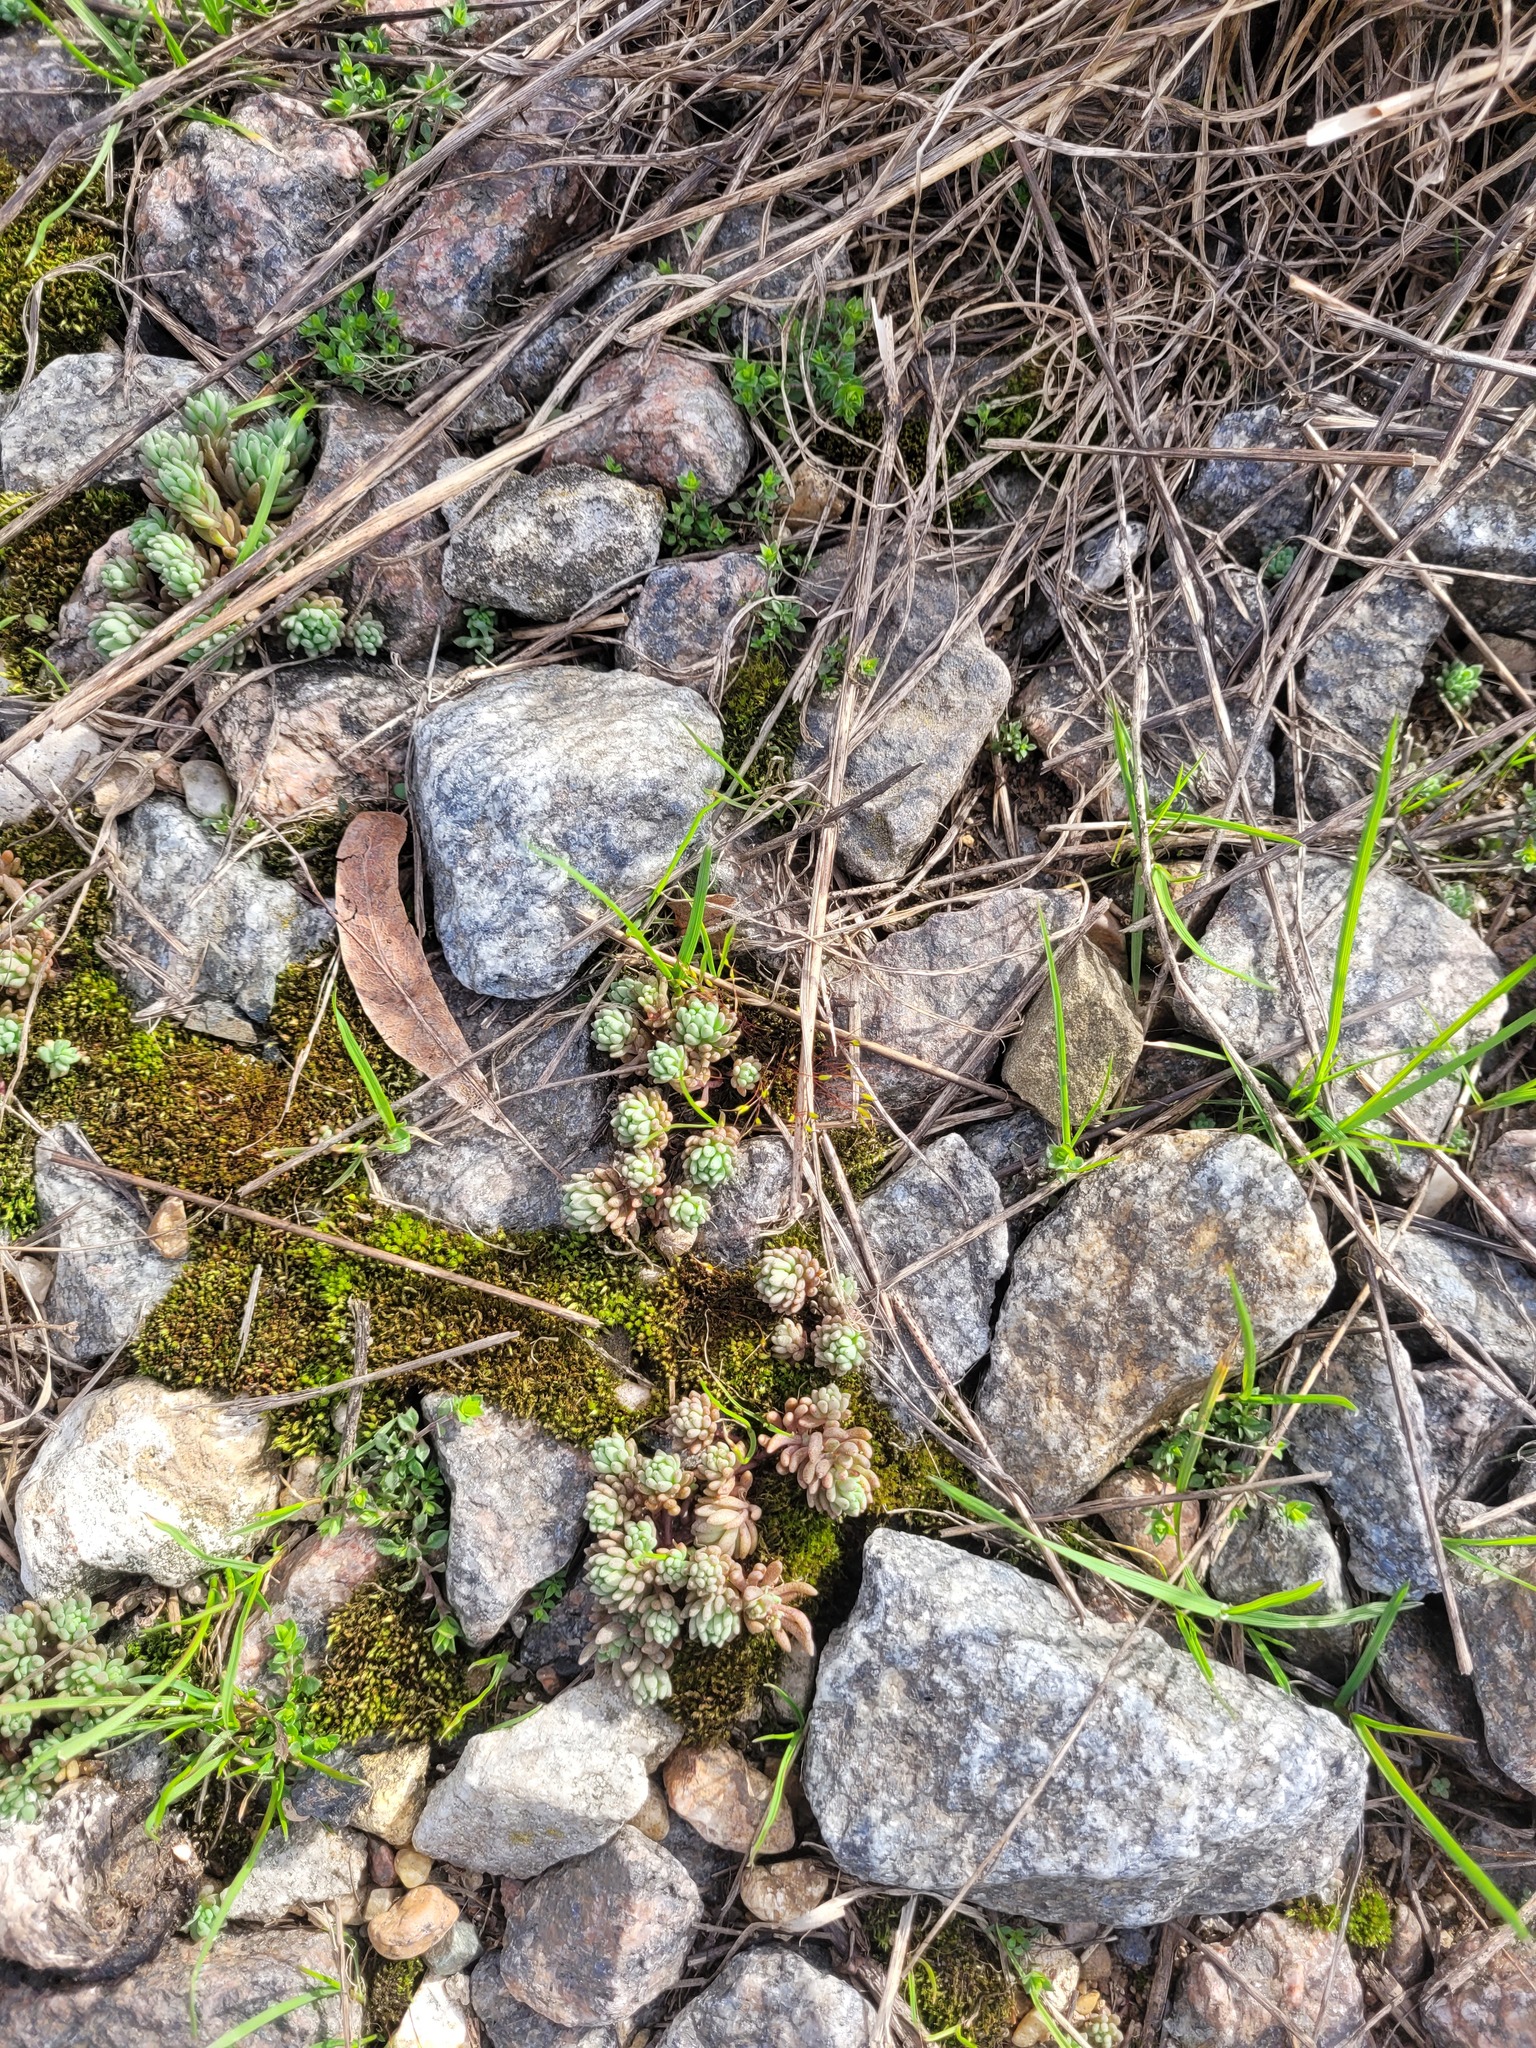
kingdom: Plantae
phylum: Tracheophyta
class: Magnoliopsida
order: Saxifragales
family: Crassulaceae
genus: Sedum
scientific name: Sedum hispanicum
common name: Spanish stonecrop
